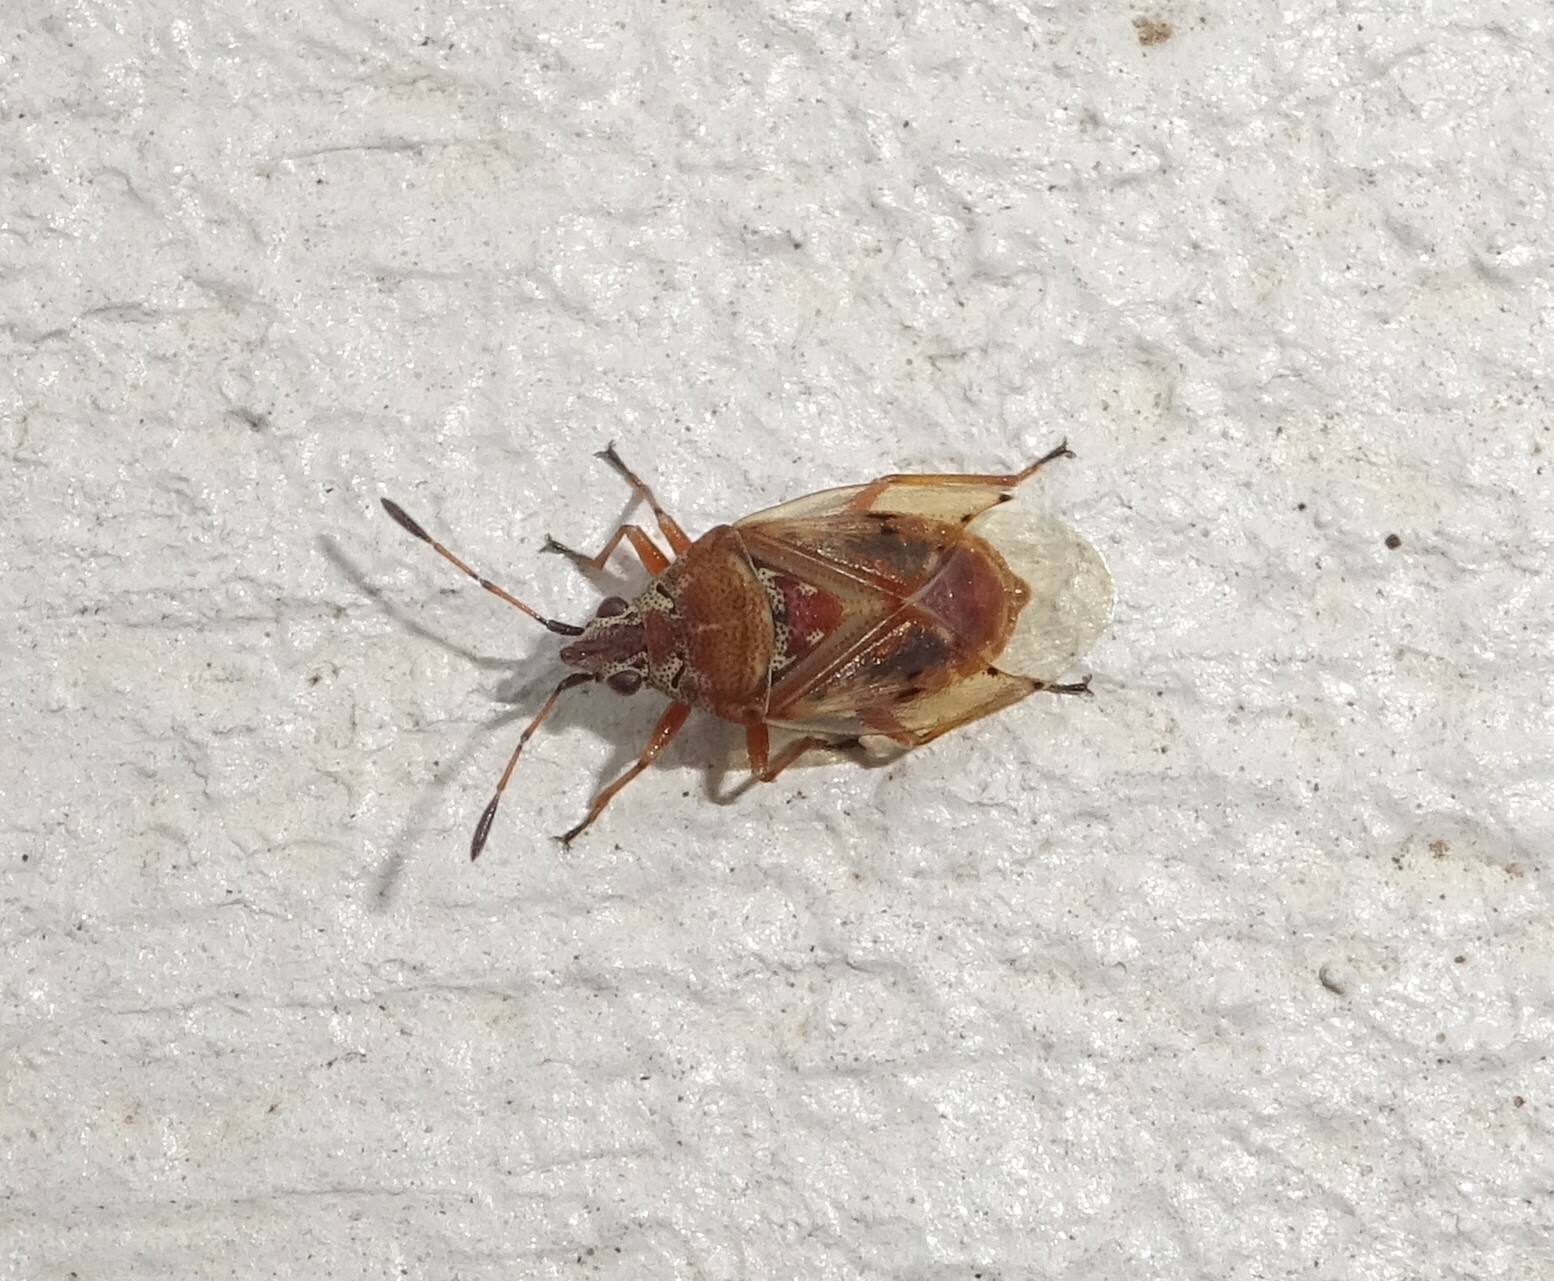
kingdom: Animalia
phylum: Arthropoda
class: Insecta
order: Hemiptera
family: Lygaeidae
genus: Kleidocerys
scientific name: Kleidocerys resedae
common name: Birch catkin bug
